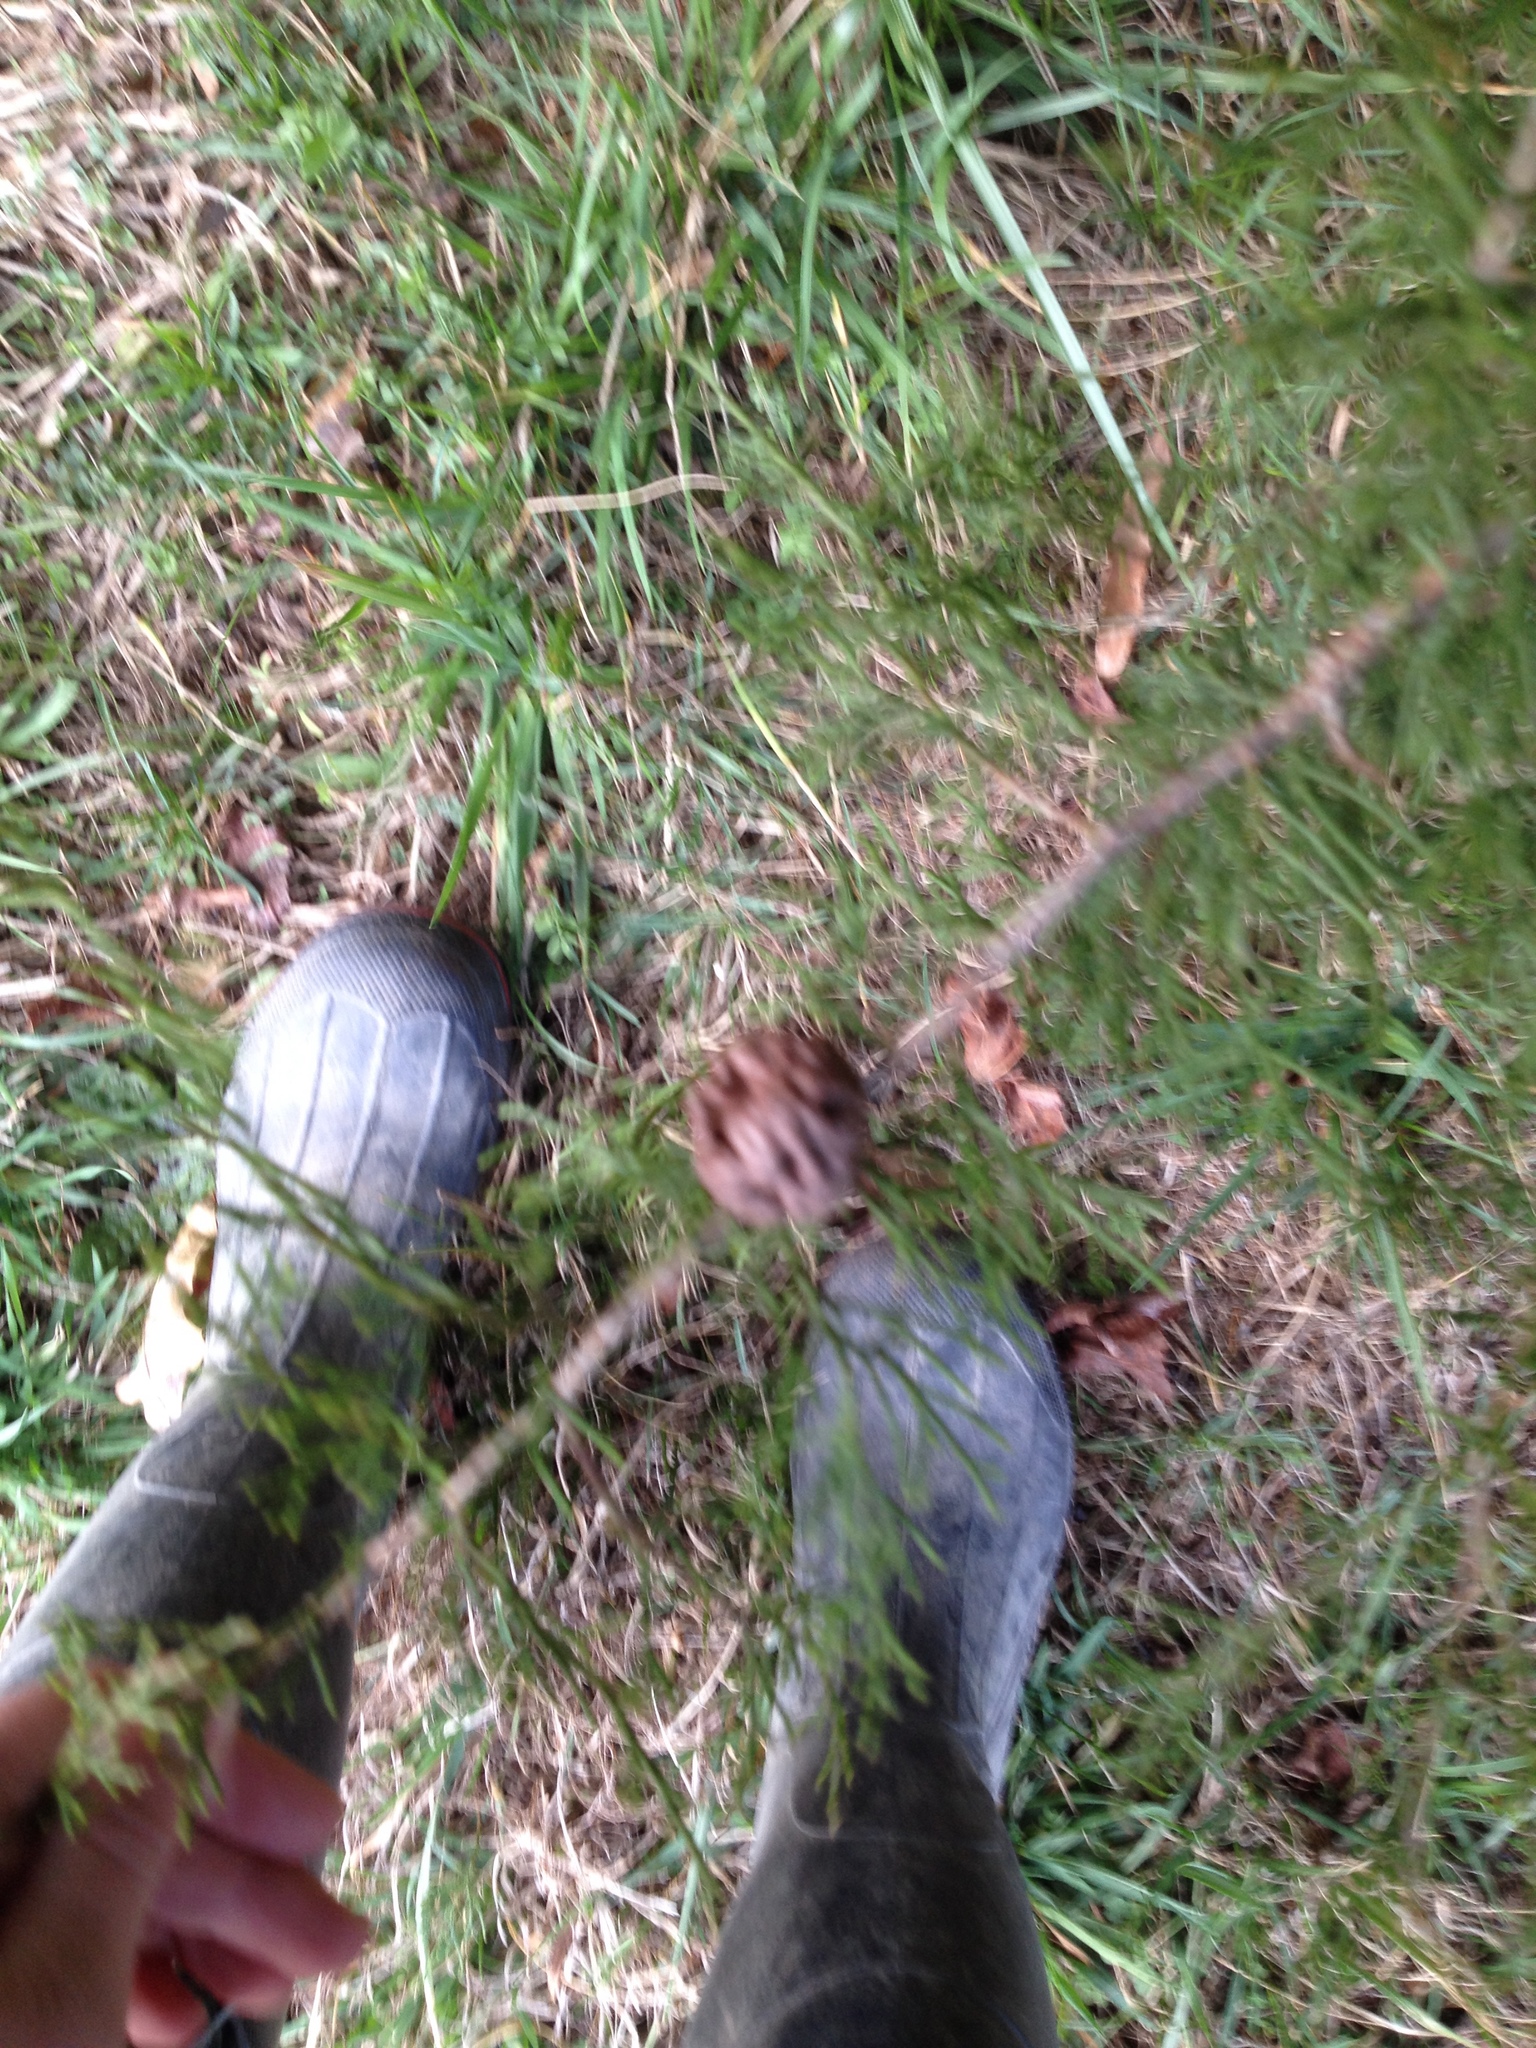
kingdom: Fungi
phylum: Basidiomycota
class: Pucciniomycetes
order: Pucciniales
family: Gymnosporangiaceae
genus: Gymnosporangium
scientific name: Gymnosporangium juniperi-virginianae
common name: Juniper-apple rust
